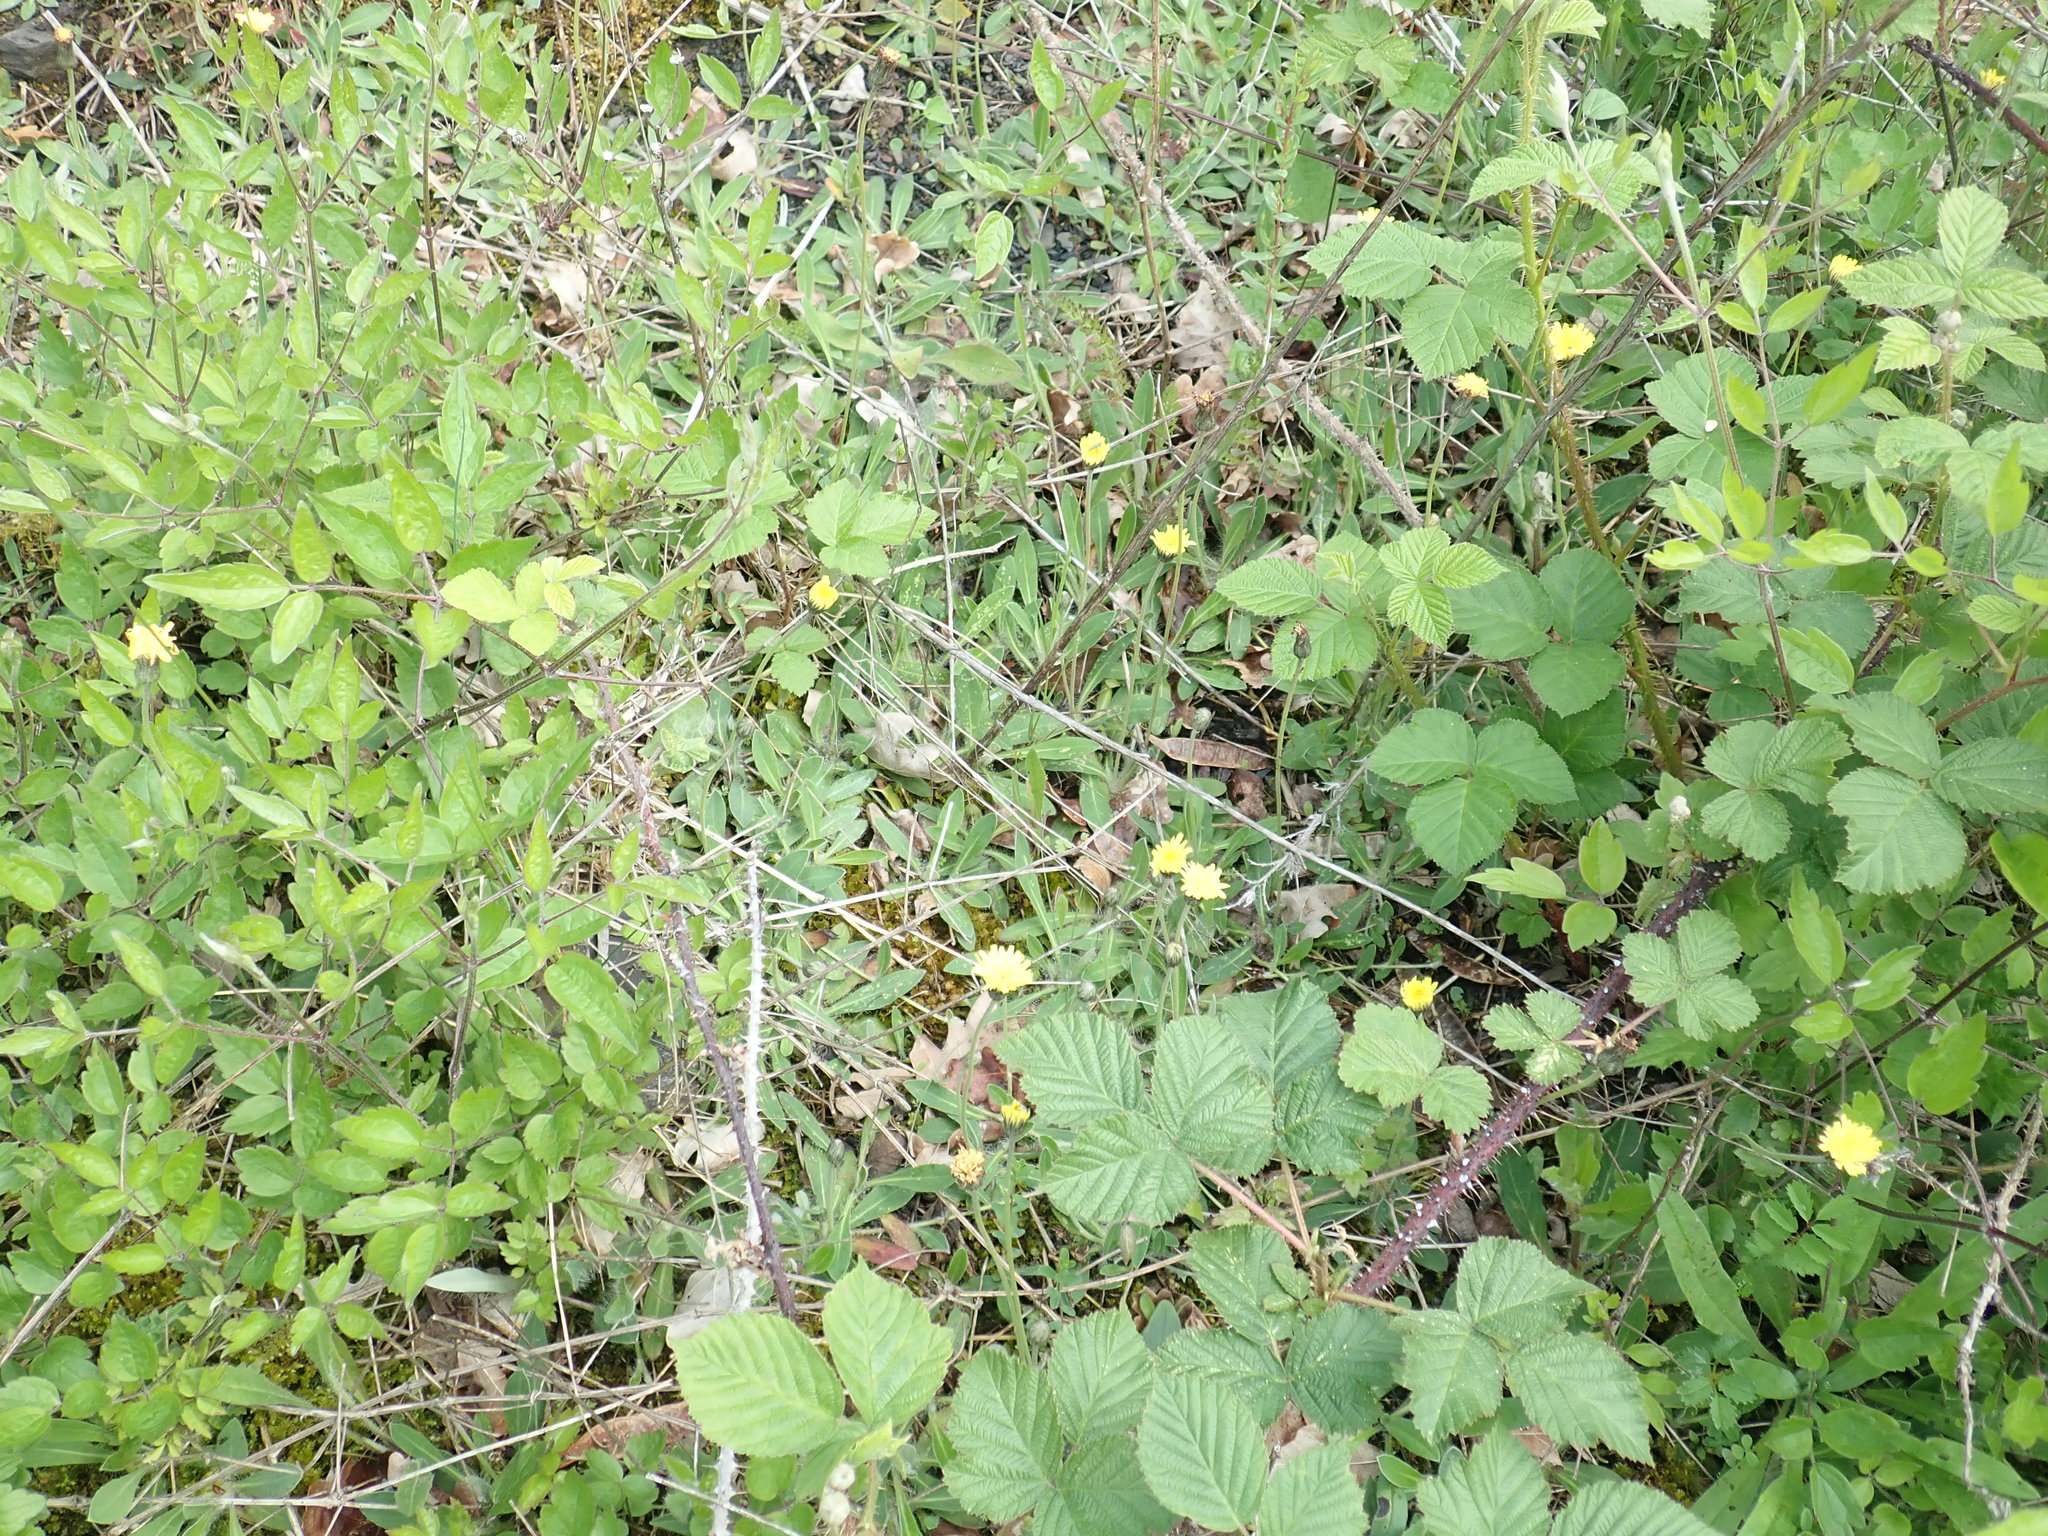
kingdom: Plantae
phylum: Tracheophyta
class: Magnoliopsida
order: Asterales
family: Asteraceae
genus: Pilosella
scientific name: Pilosella officinarum
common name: Mouse-ear hawkweed
